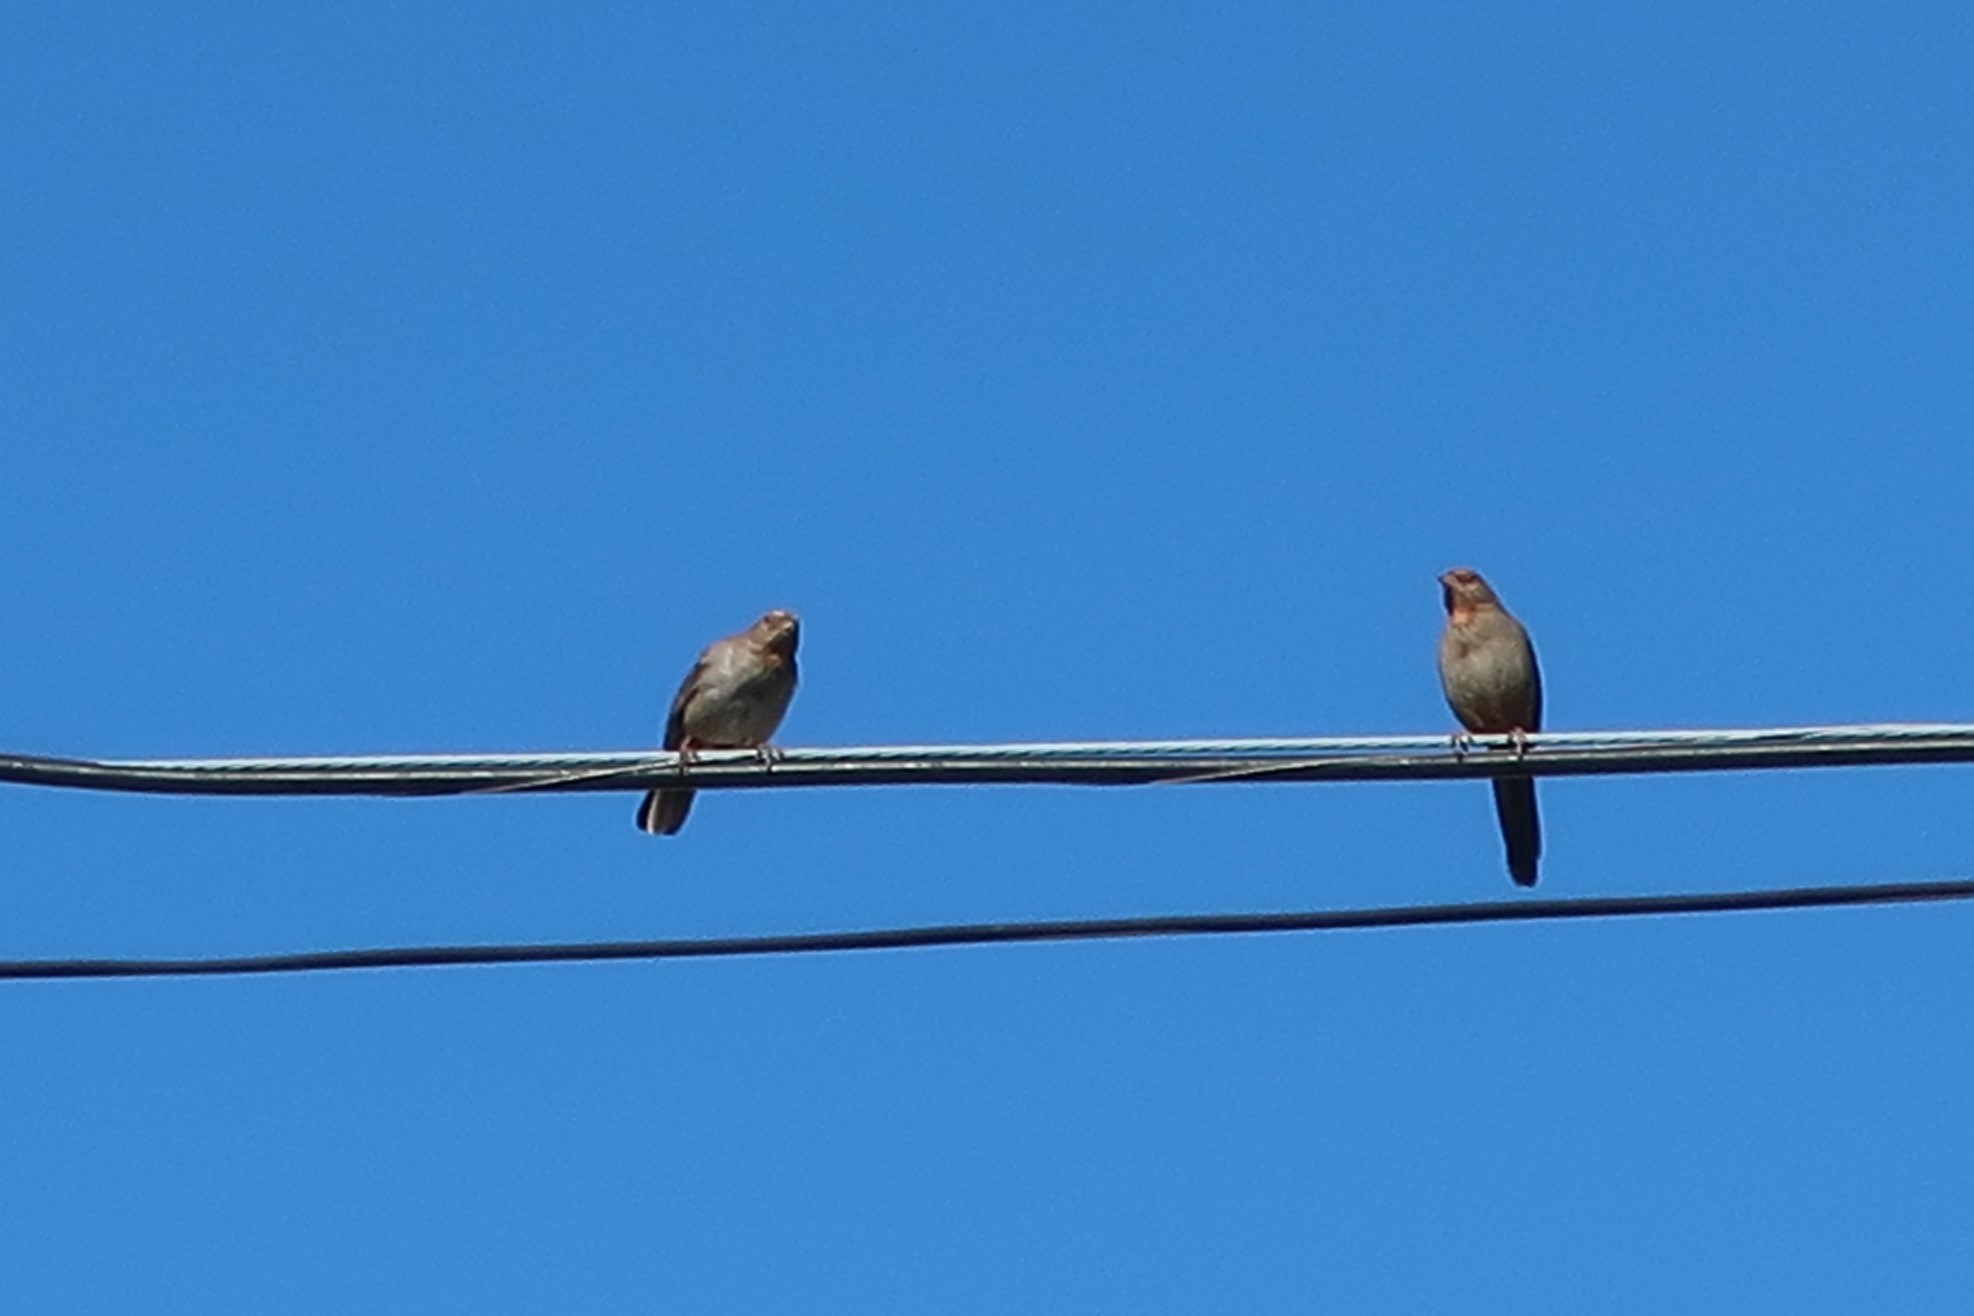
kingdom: Animalia
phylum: Chordata
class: Aves
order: Passeriformes
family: Passerellidae
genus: Melozone
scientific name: Melozone crissalis
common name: California towhee
